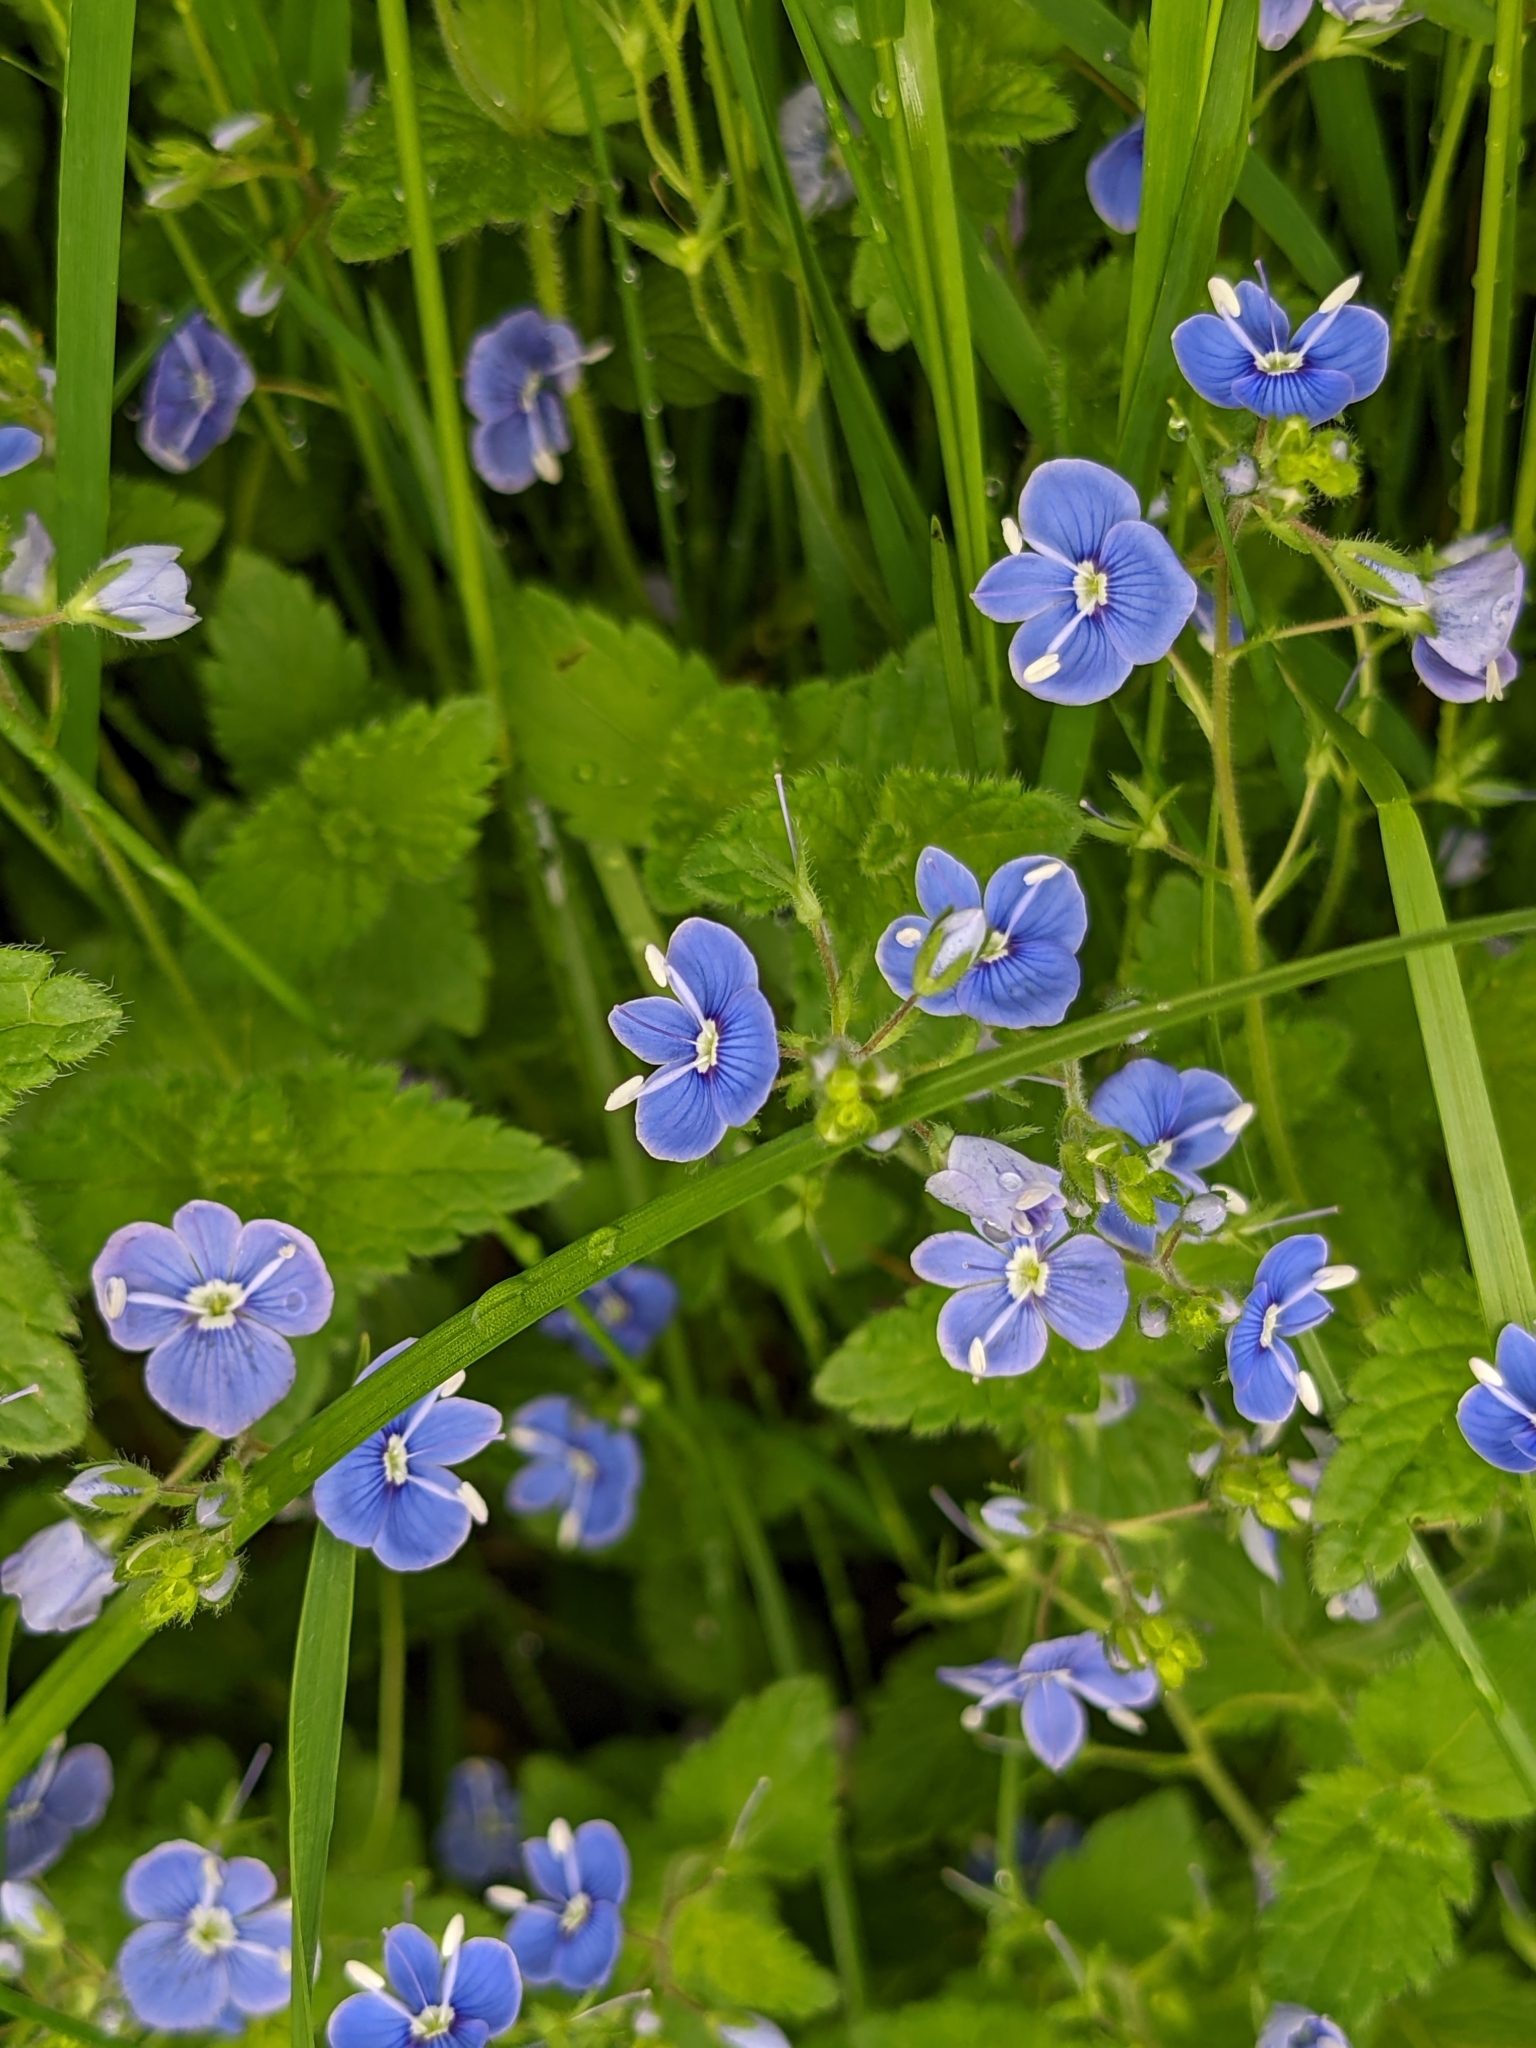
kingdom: Plantae
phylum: Tracheophyta
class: Magnoliopsida
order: Lamiales
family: Plantaginaceae
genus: Veronica
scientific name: Veronica chamaedrys
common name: Germander speedwell
